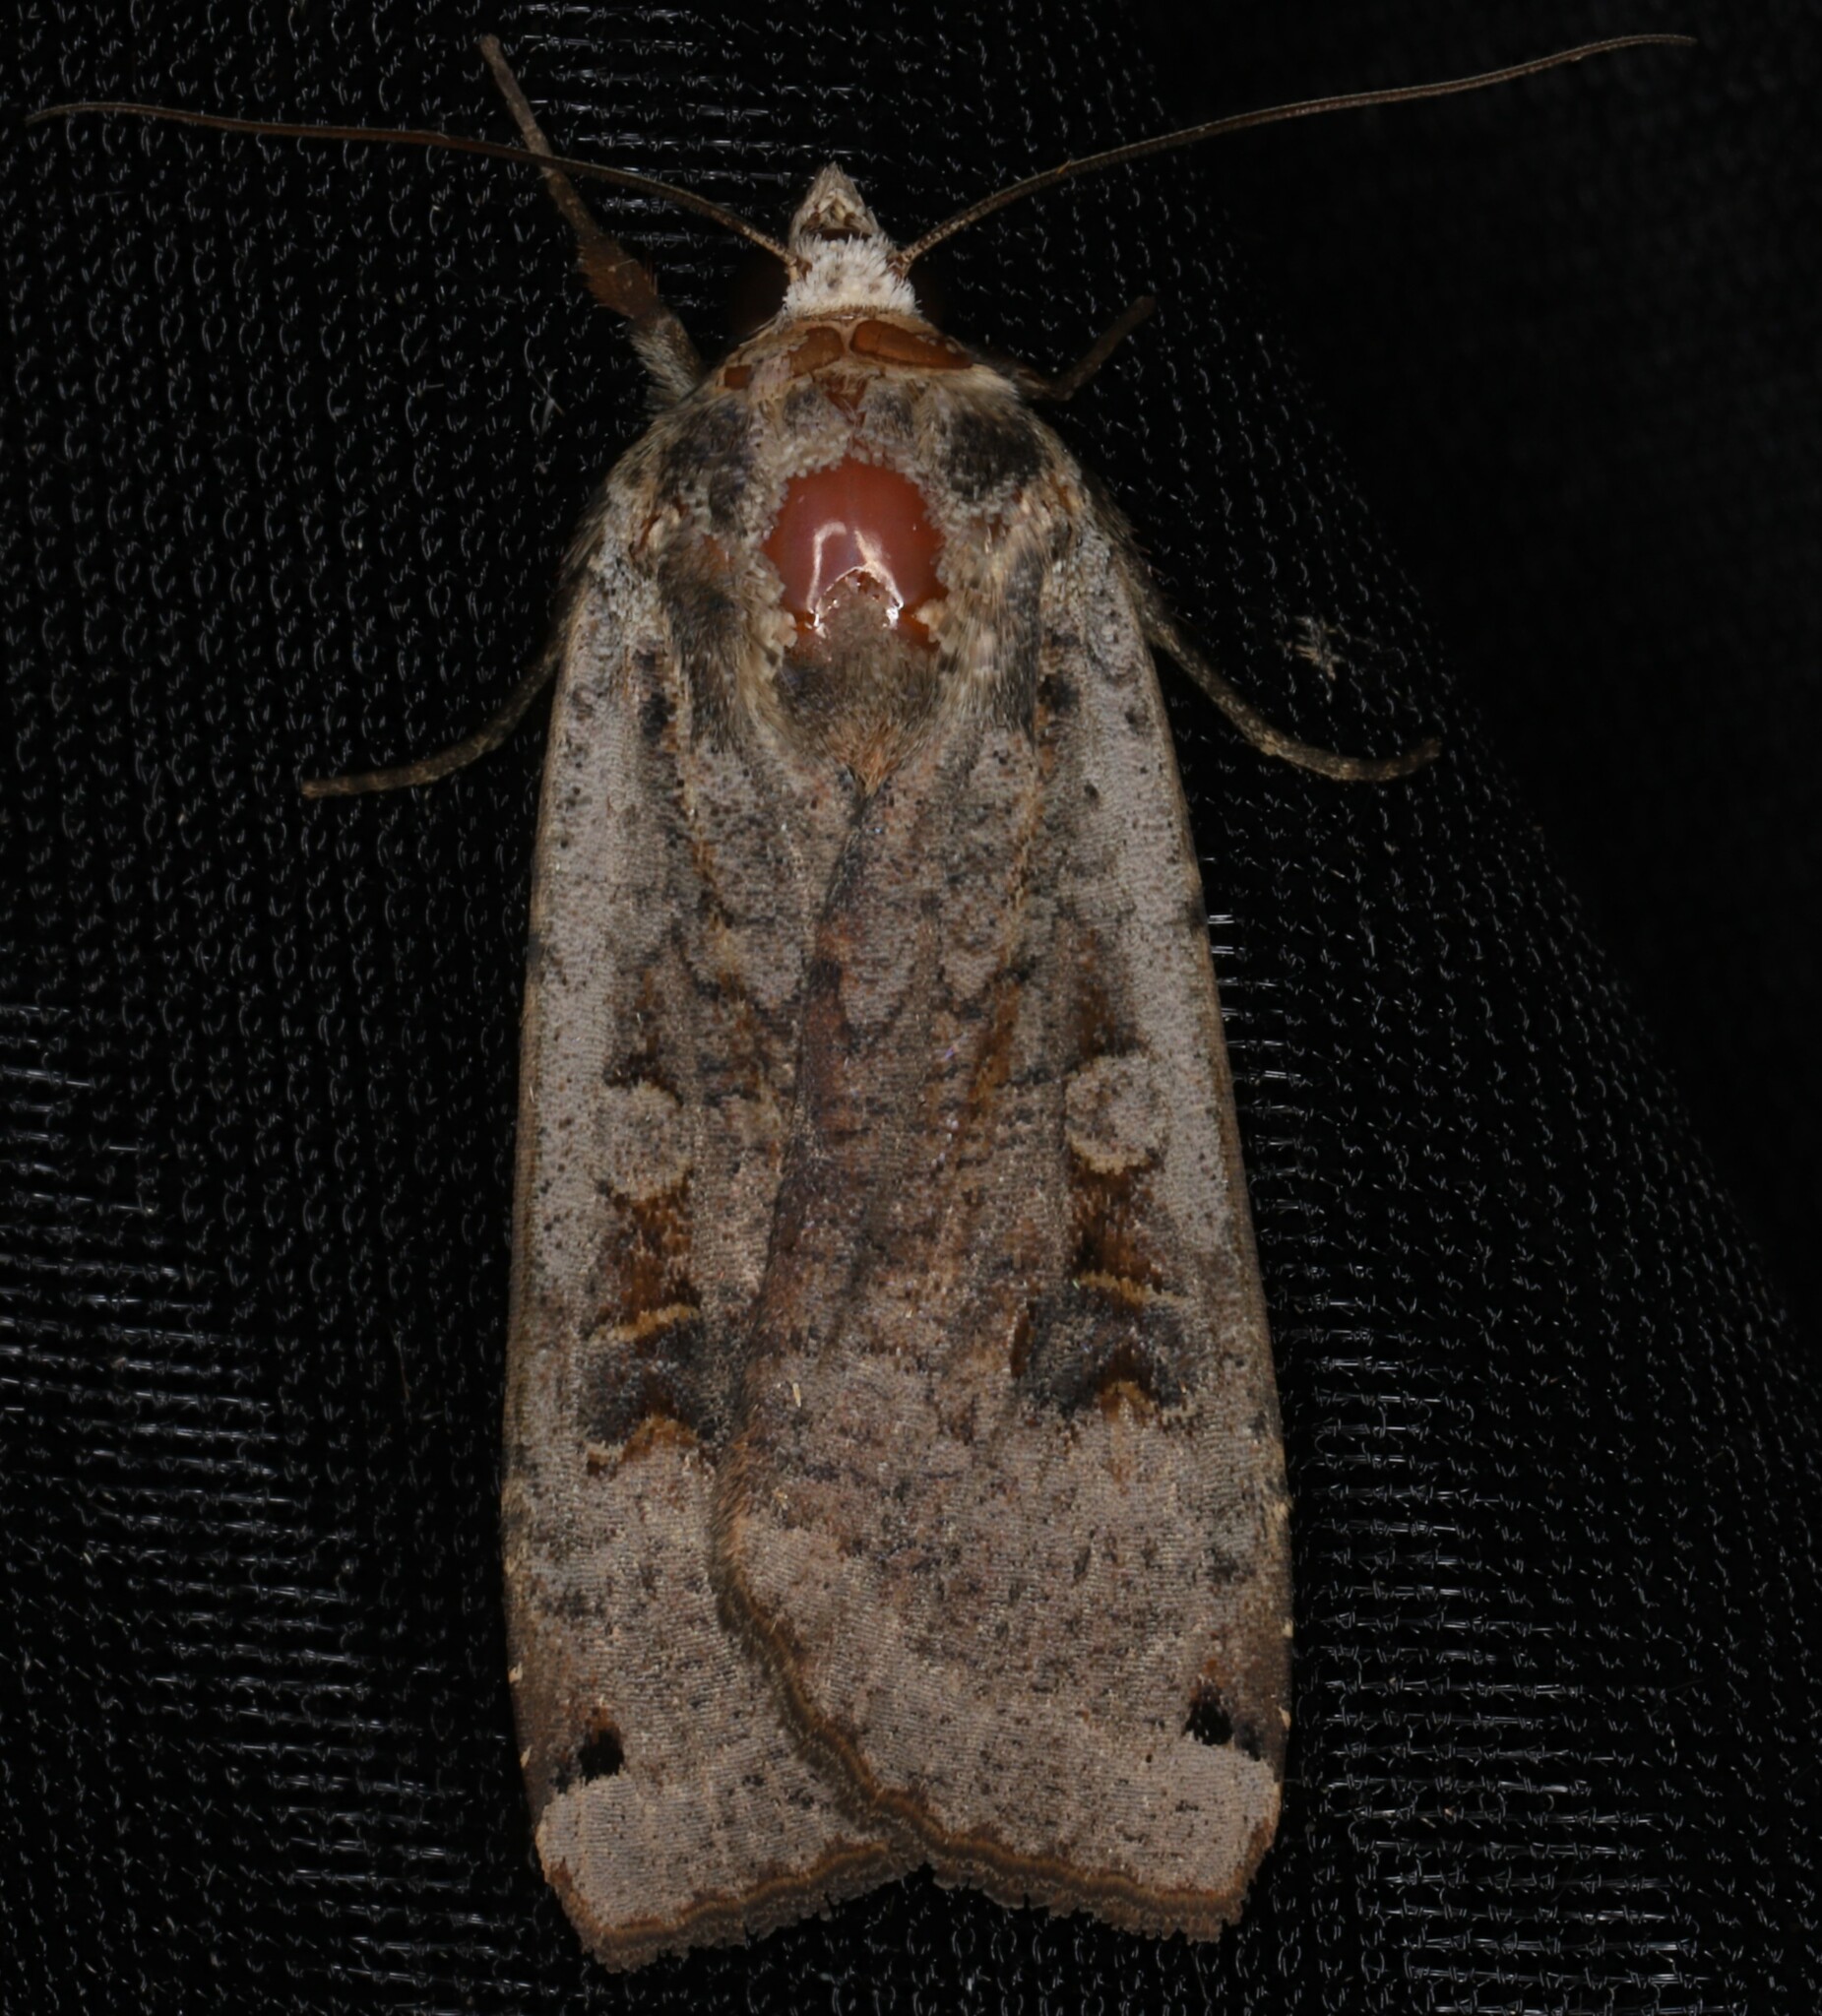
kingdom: Animalia
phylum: Arthropoda
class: Insecta
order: Lepidoptera
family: Noctuidae
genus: Noctua
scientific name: Noctua pronuba
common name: Large yellow underwing
